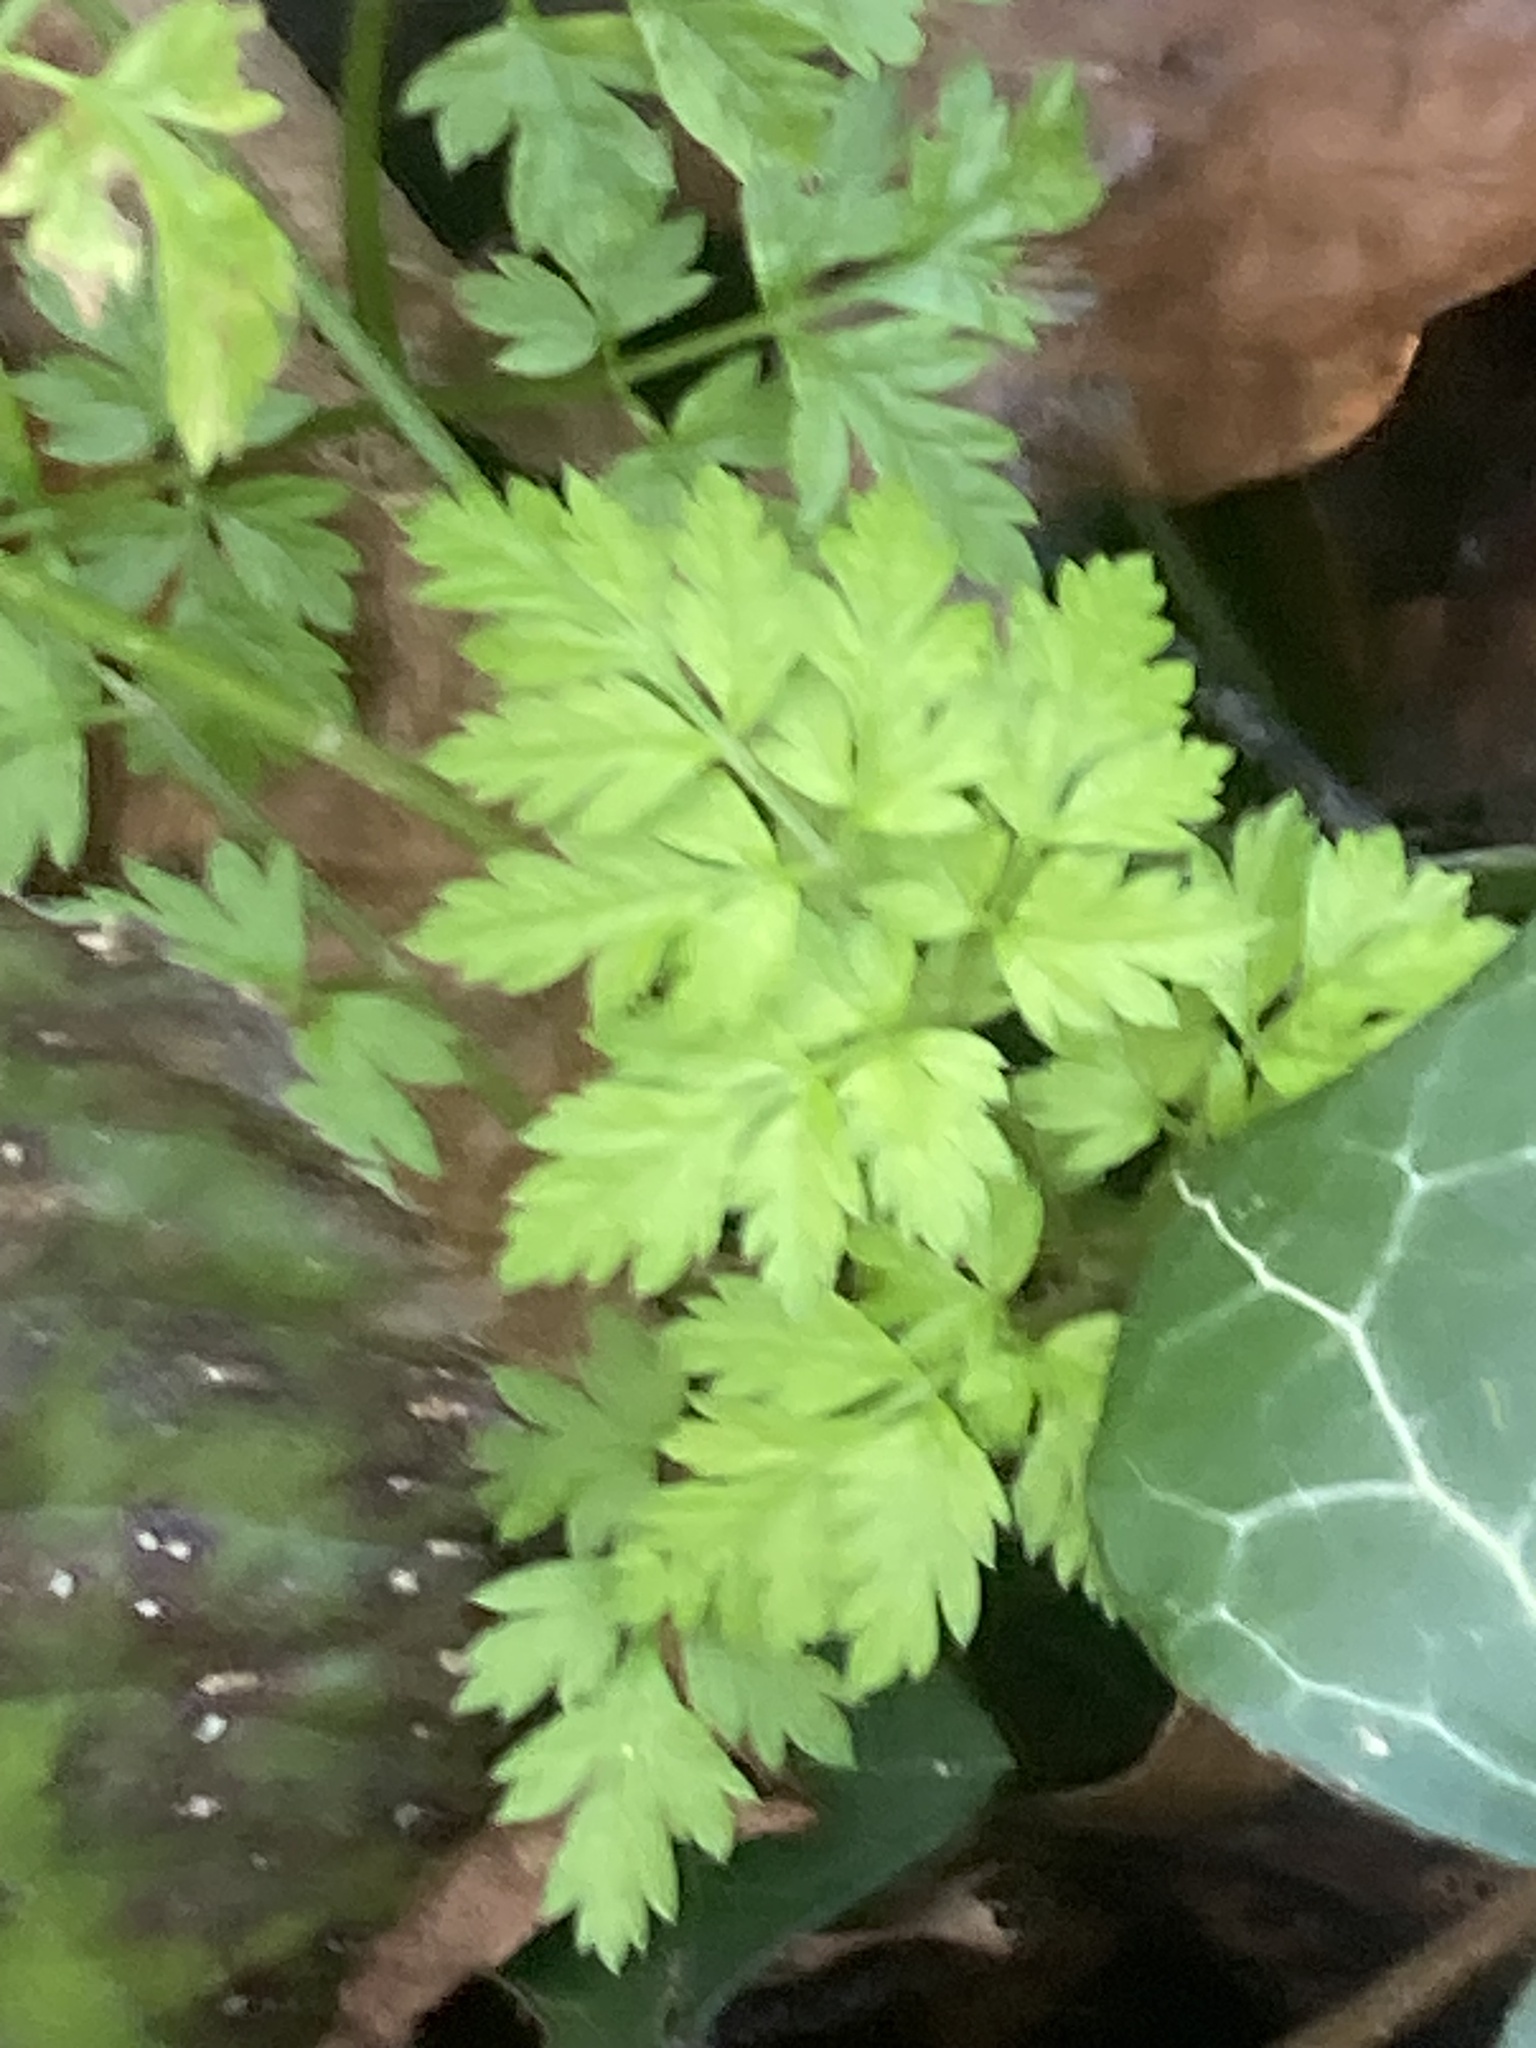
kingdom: Plantae
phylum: Tracheophyta
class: Magnoliopsida
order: Apiales
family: Apiaceae
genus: Anthriscus
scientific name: Anthriscus sylvestris
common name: Cow parsley
